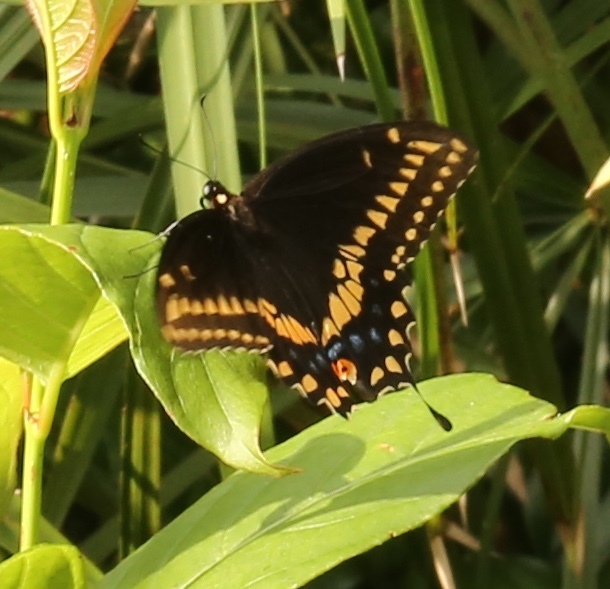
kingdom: Animalia
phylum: Arthropoda
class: Insecta
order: Lepidoptera
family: Papilionidae
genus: Papilio
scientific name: Papilio polyxenes
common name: Black swallowtail
